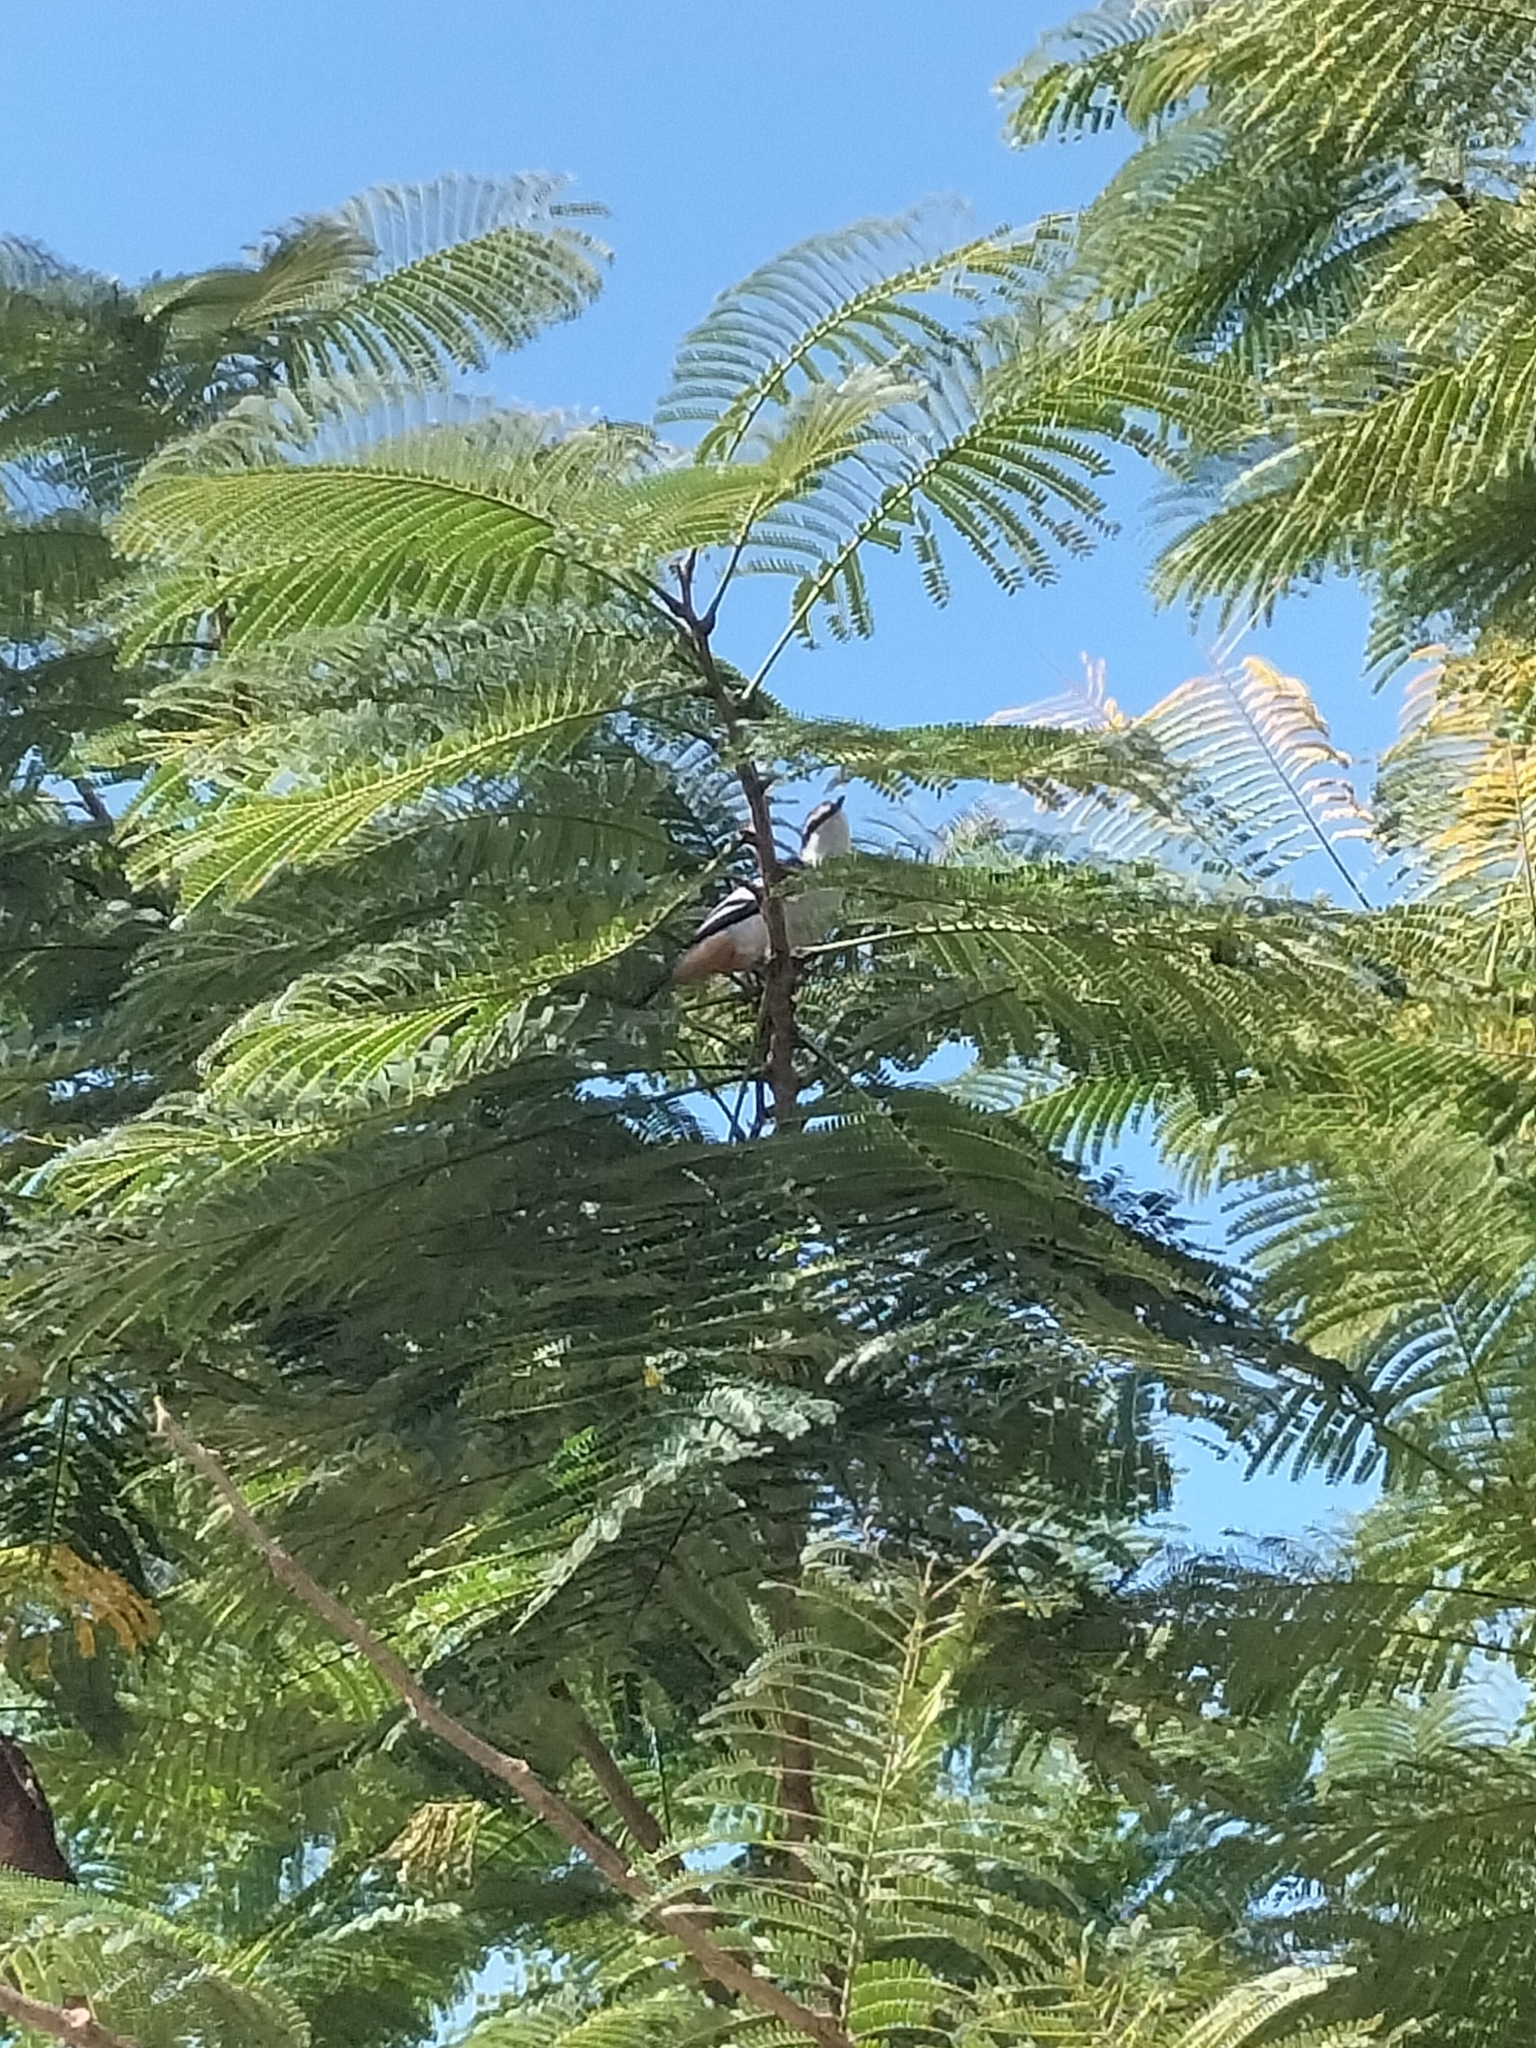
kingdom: Animalia
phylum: Chordata
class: Aves
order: Passeriformes
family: Campephagidae
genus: Lalage
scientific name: Lalage leucomela
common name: Varied triller
